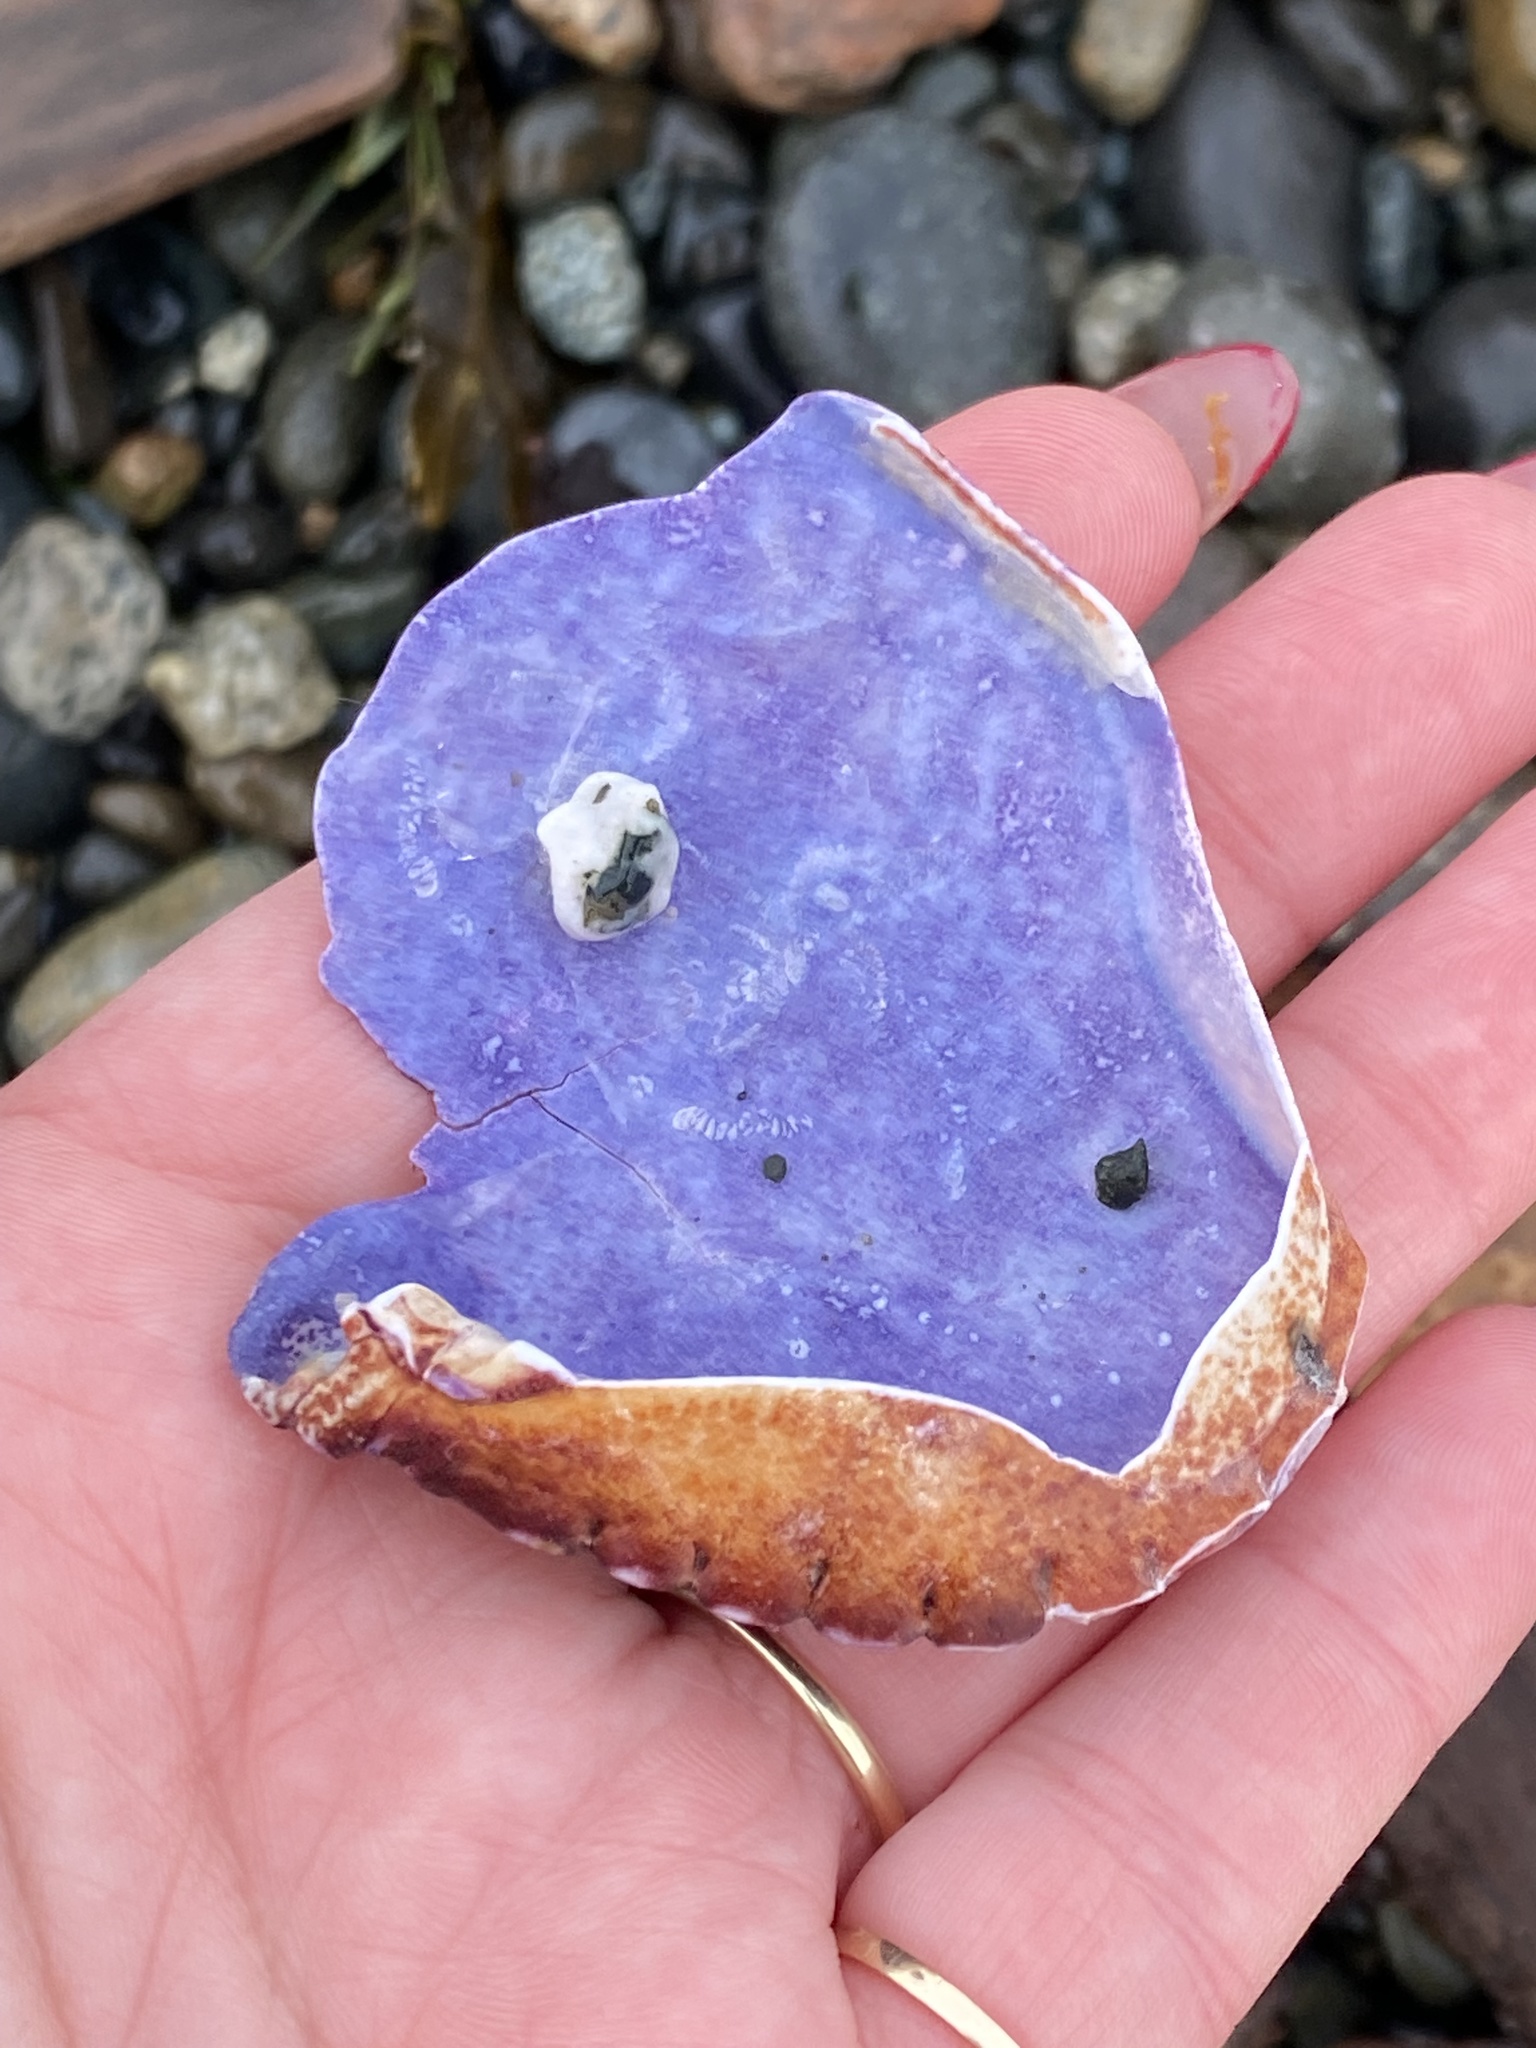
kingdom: Animalia
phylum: Arthropoda
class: Malacostraca
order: Decapoda
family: Cancridae
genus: Cancer
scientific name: Cancer productus
